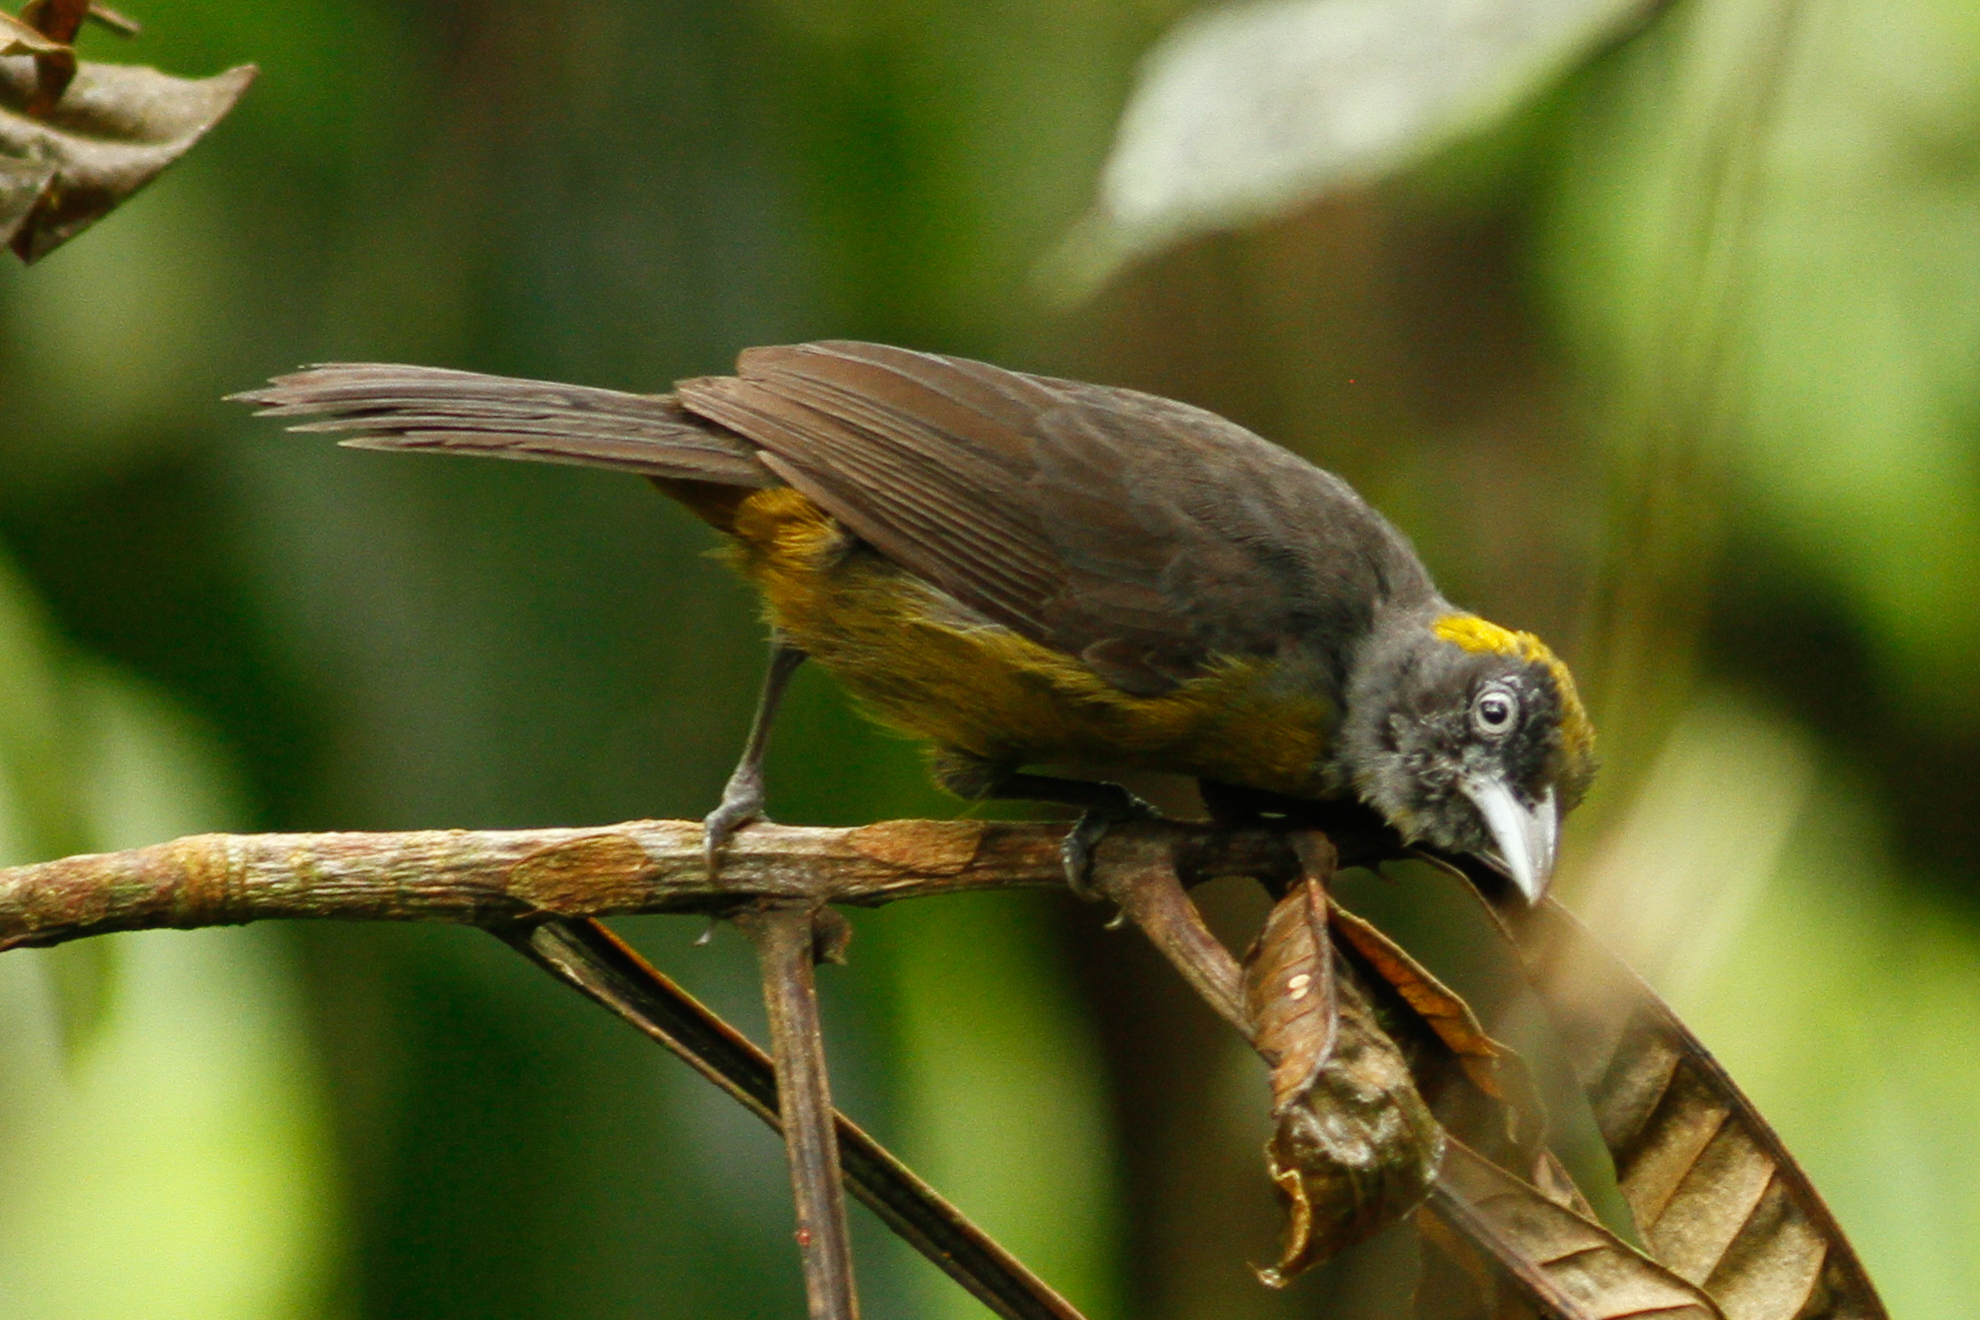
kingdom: Animalia
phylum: Chordata
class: Aves
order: Passeriformes
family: Mitrospingidae
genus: Mitrospingus
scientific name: Mitrospingus cassinii
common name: Dusky-faced tanager
